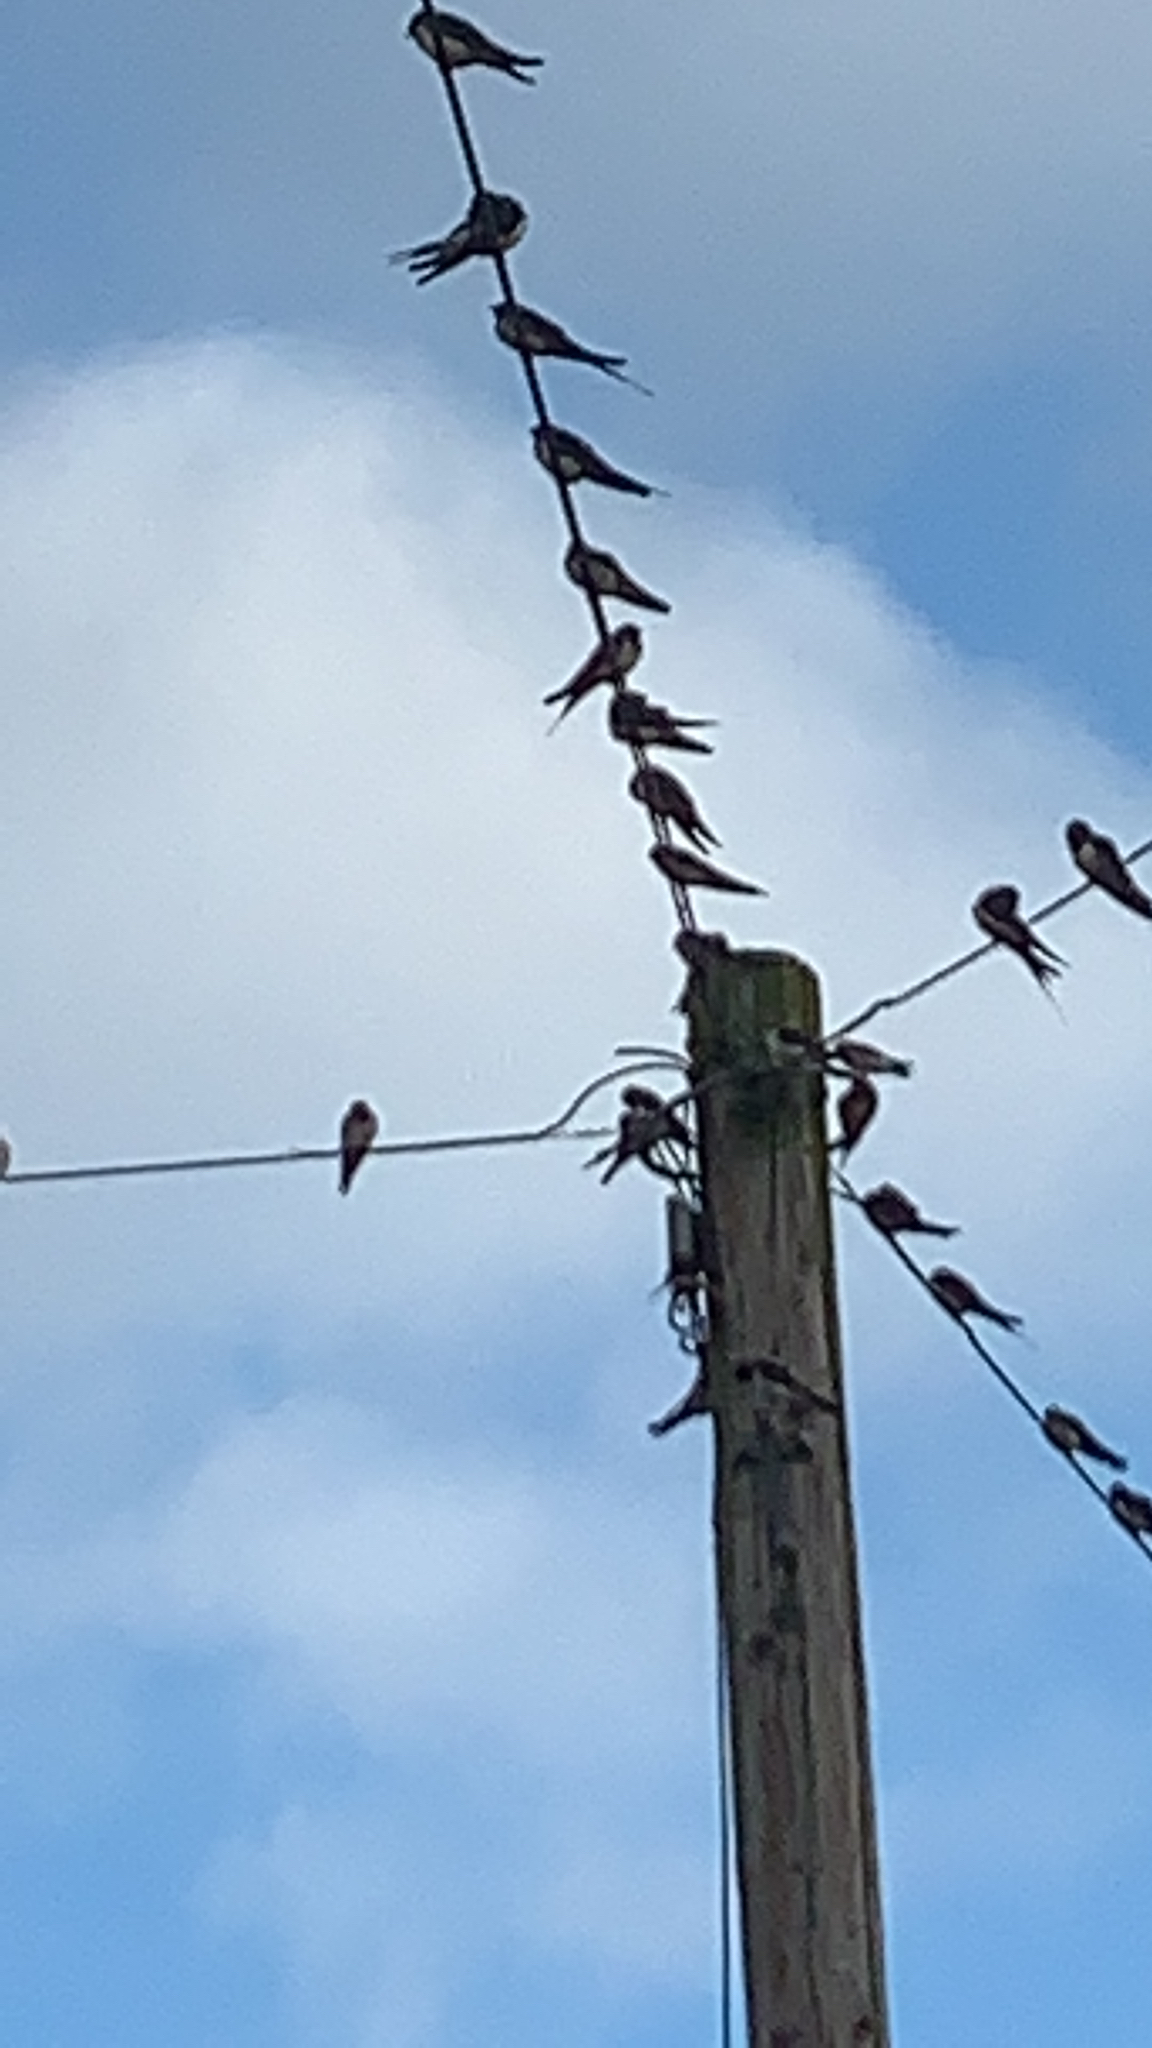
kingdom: Animalia
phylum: Chordata
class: Aves
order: Passeriformes
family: Hirundinidae
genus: Hirundo
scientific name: Hirundo rustica
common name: Barn swallow
